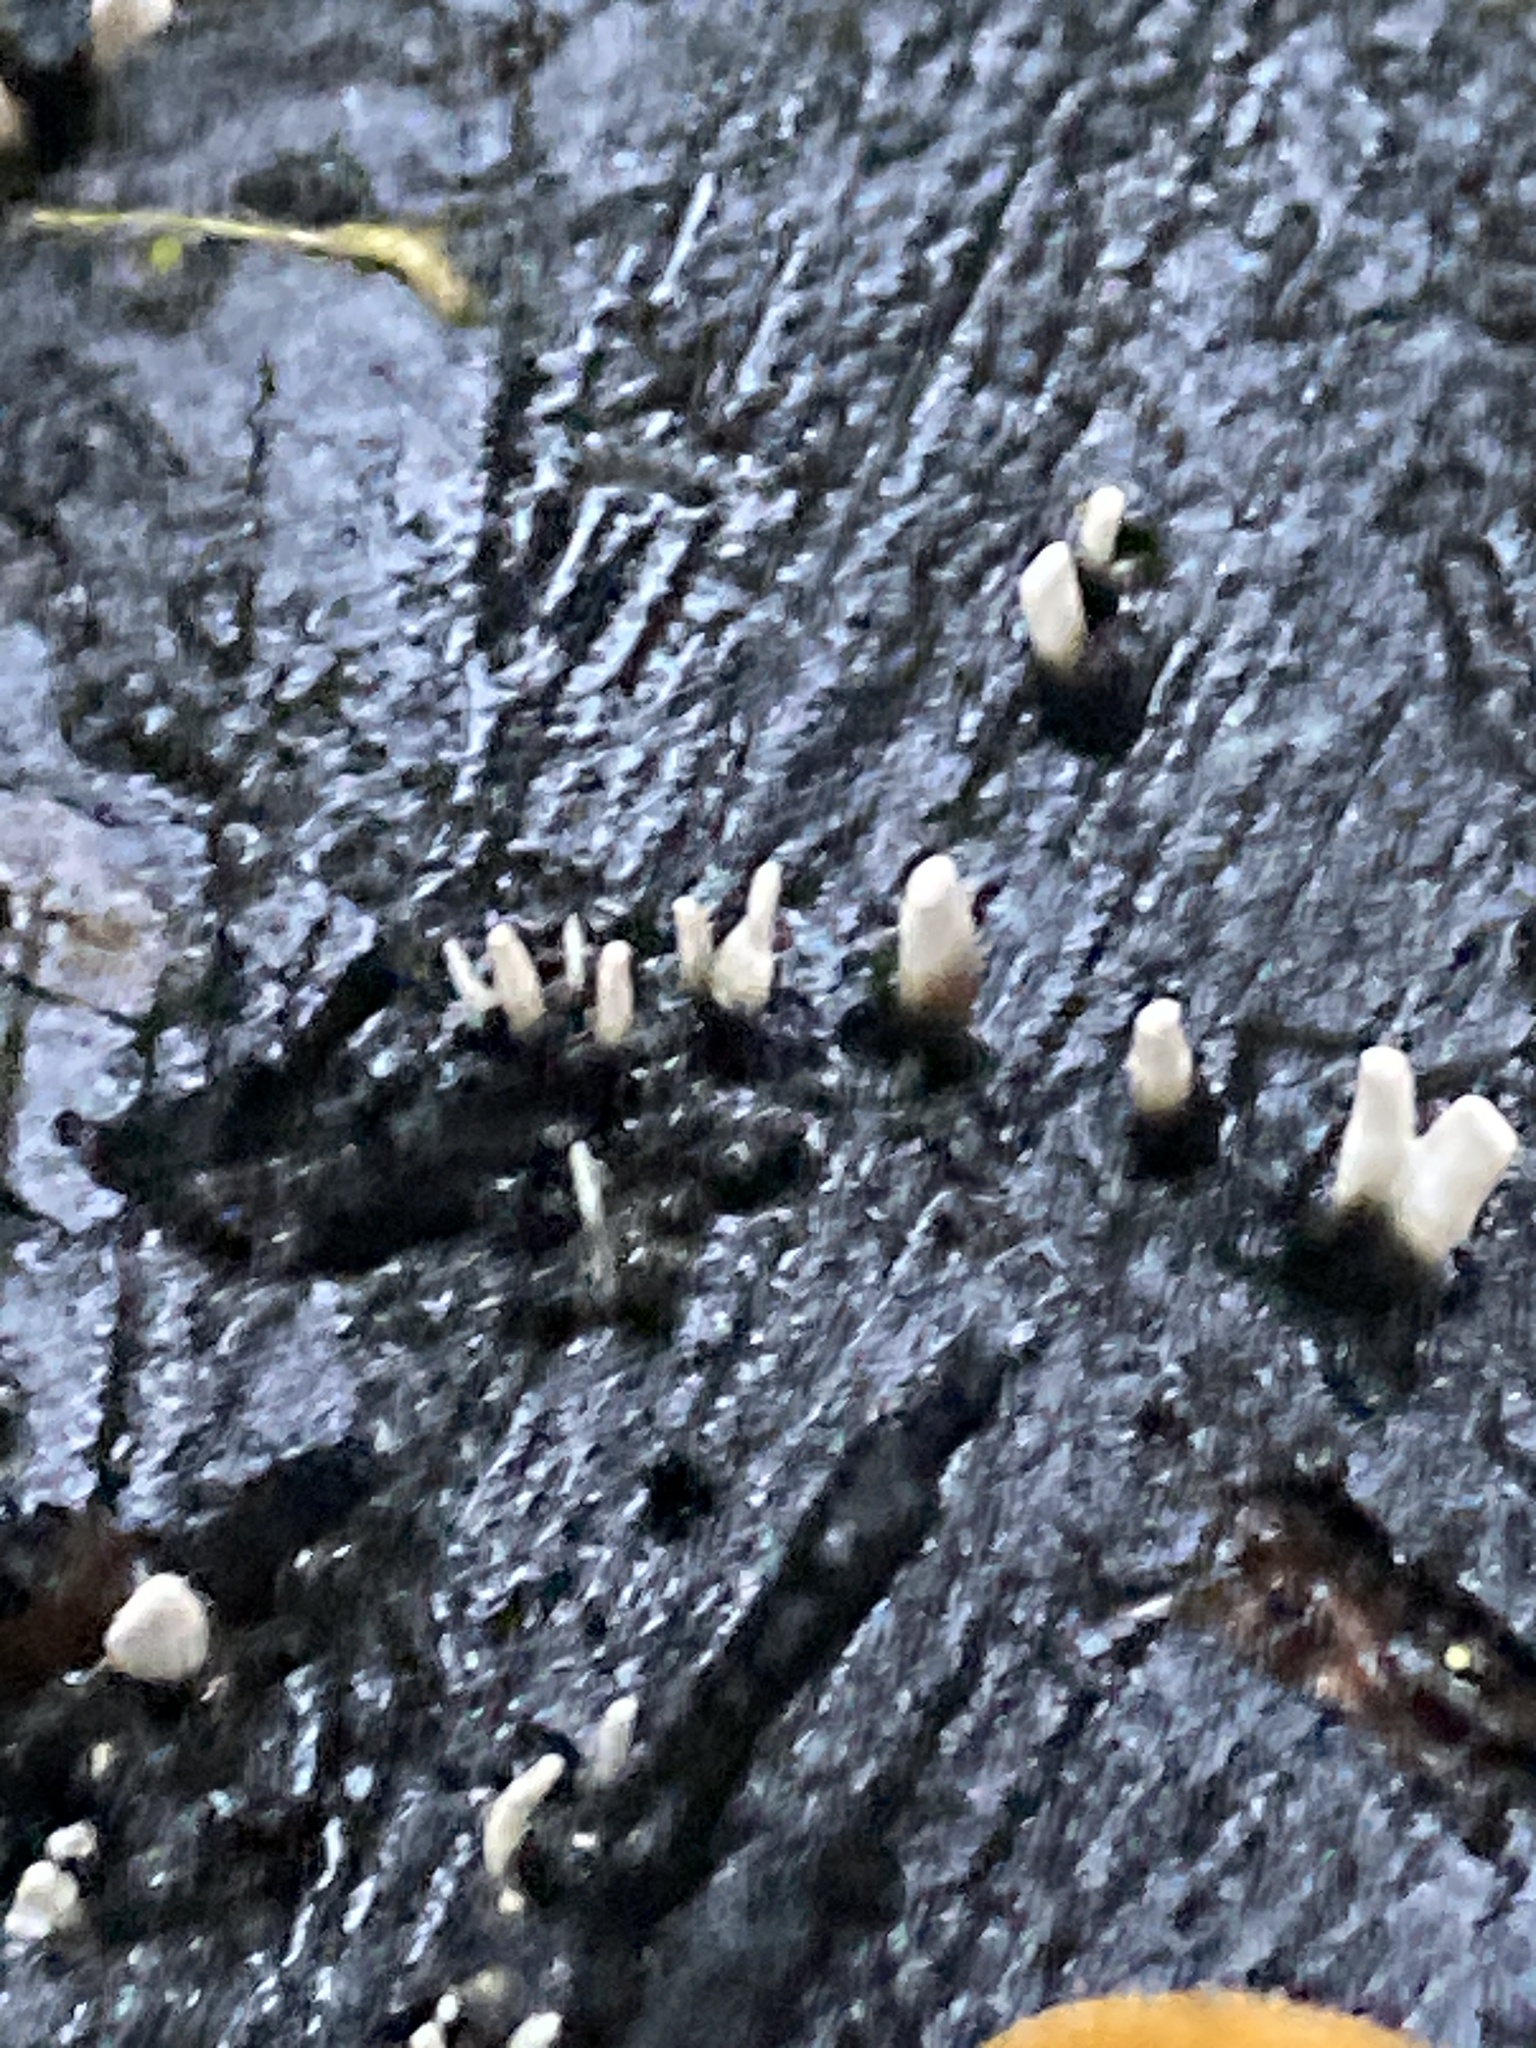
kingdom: Fungi
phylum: Ascomycota
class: Sordariomycetes
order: Xylariales
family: Xylariaceae
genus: Xylaria
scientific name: Xylaria hypoxylon
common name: Candle-snuff fungus
